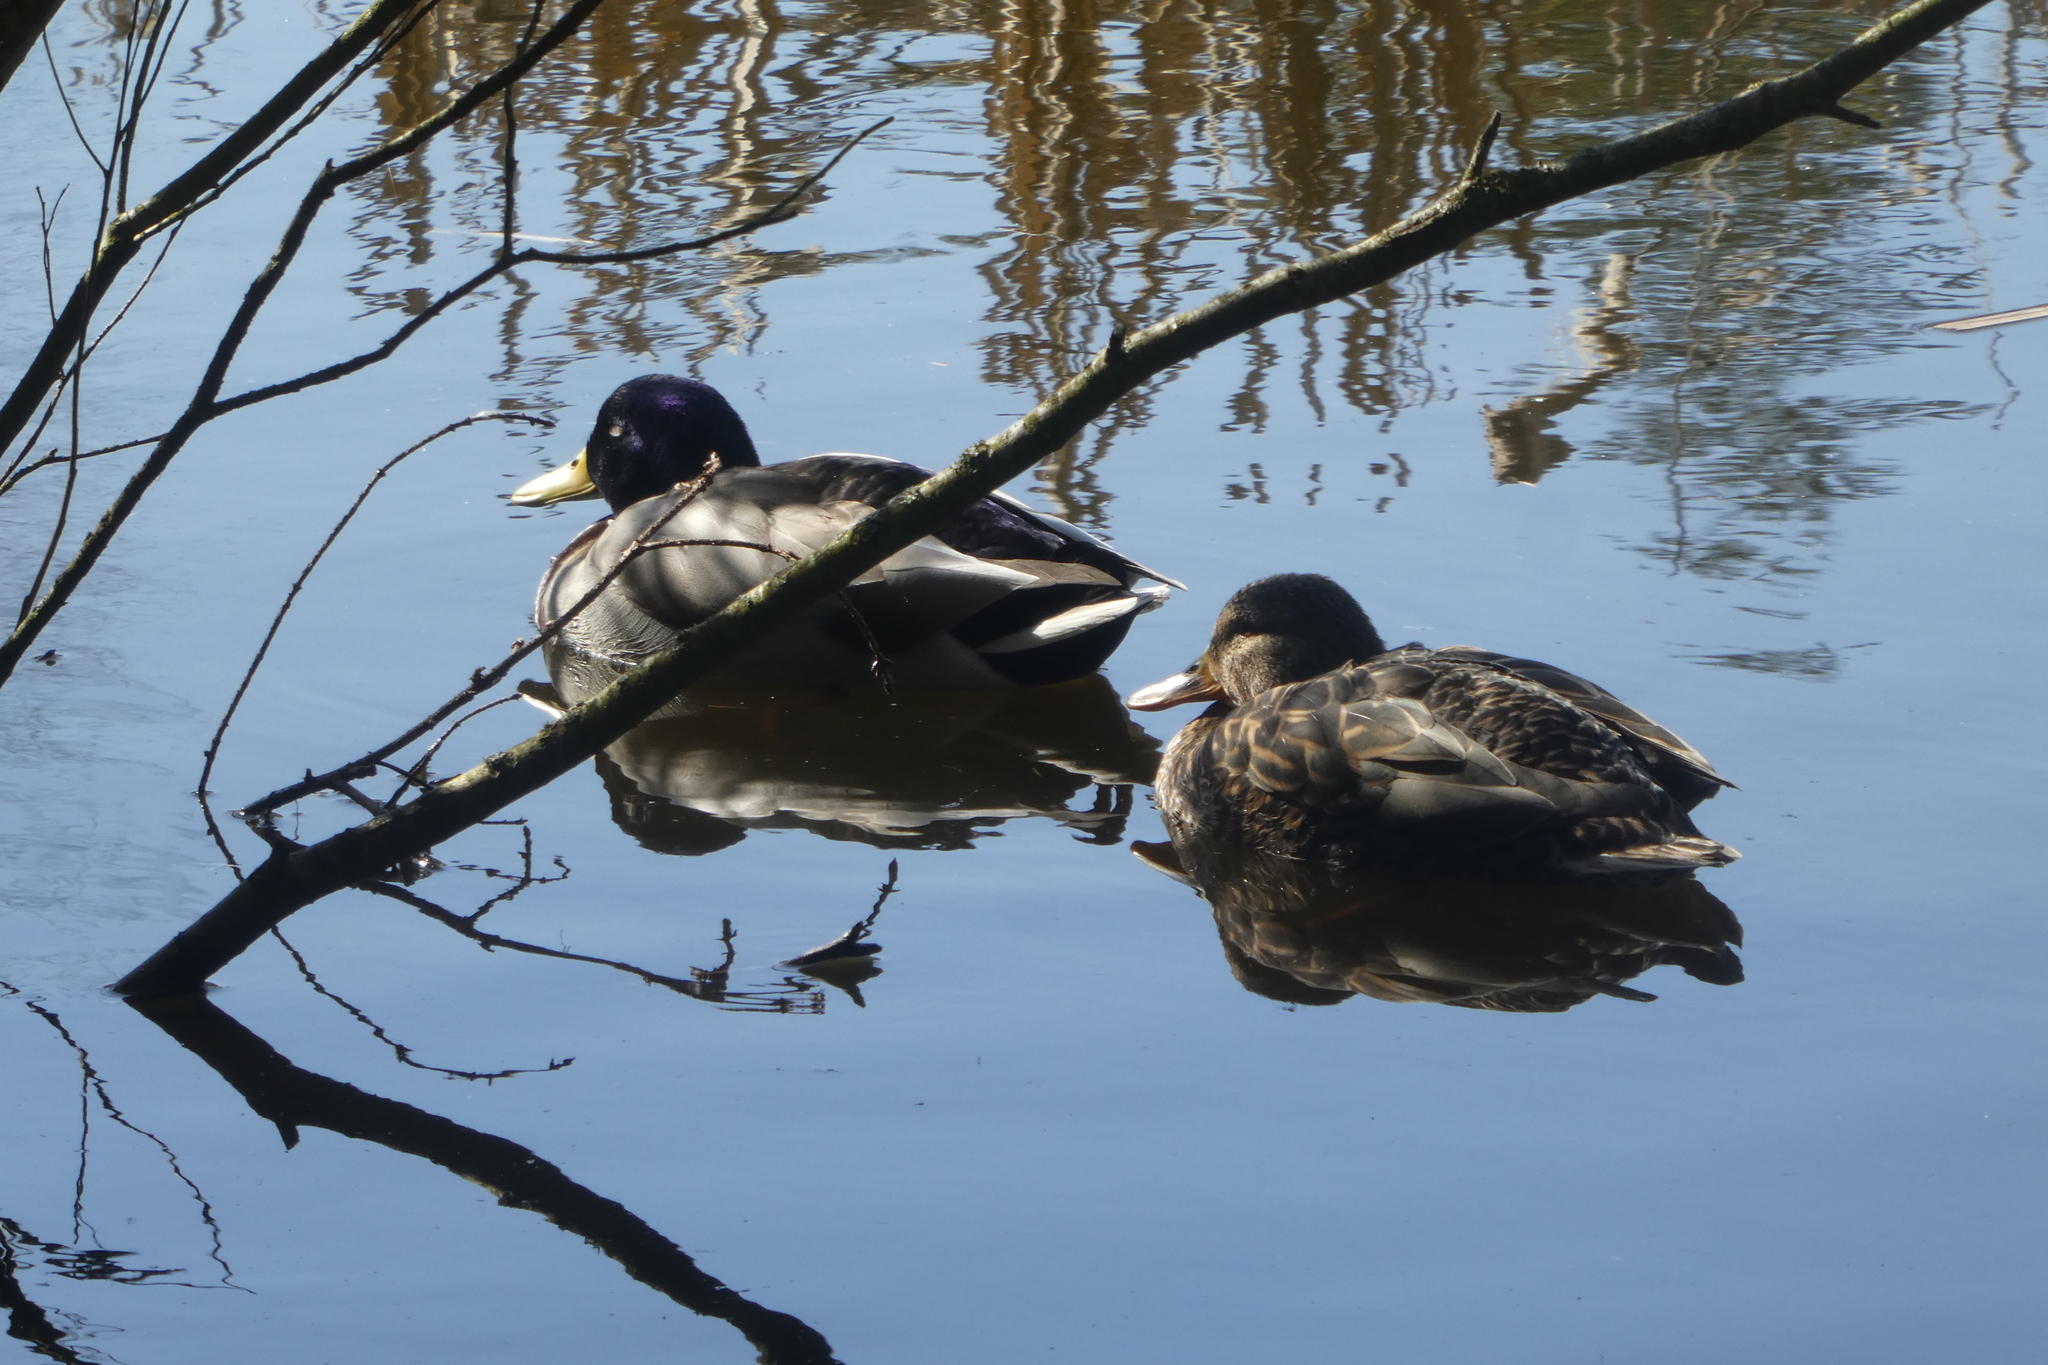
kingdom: Animalia
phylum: Chordata
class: Aves
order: Anseriformes
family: Anatidae
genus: Anas
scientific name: Anas platyrhynchos
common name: Mallard
